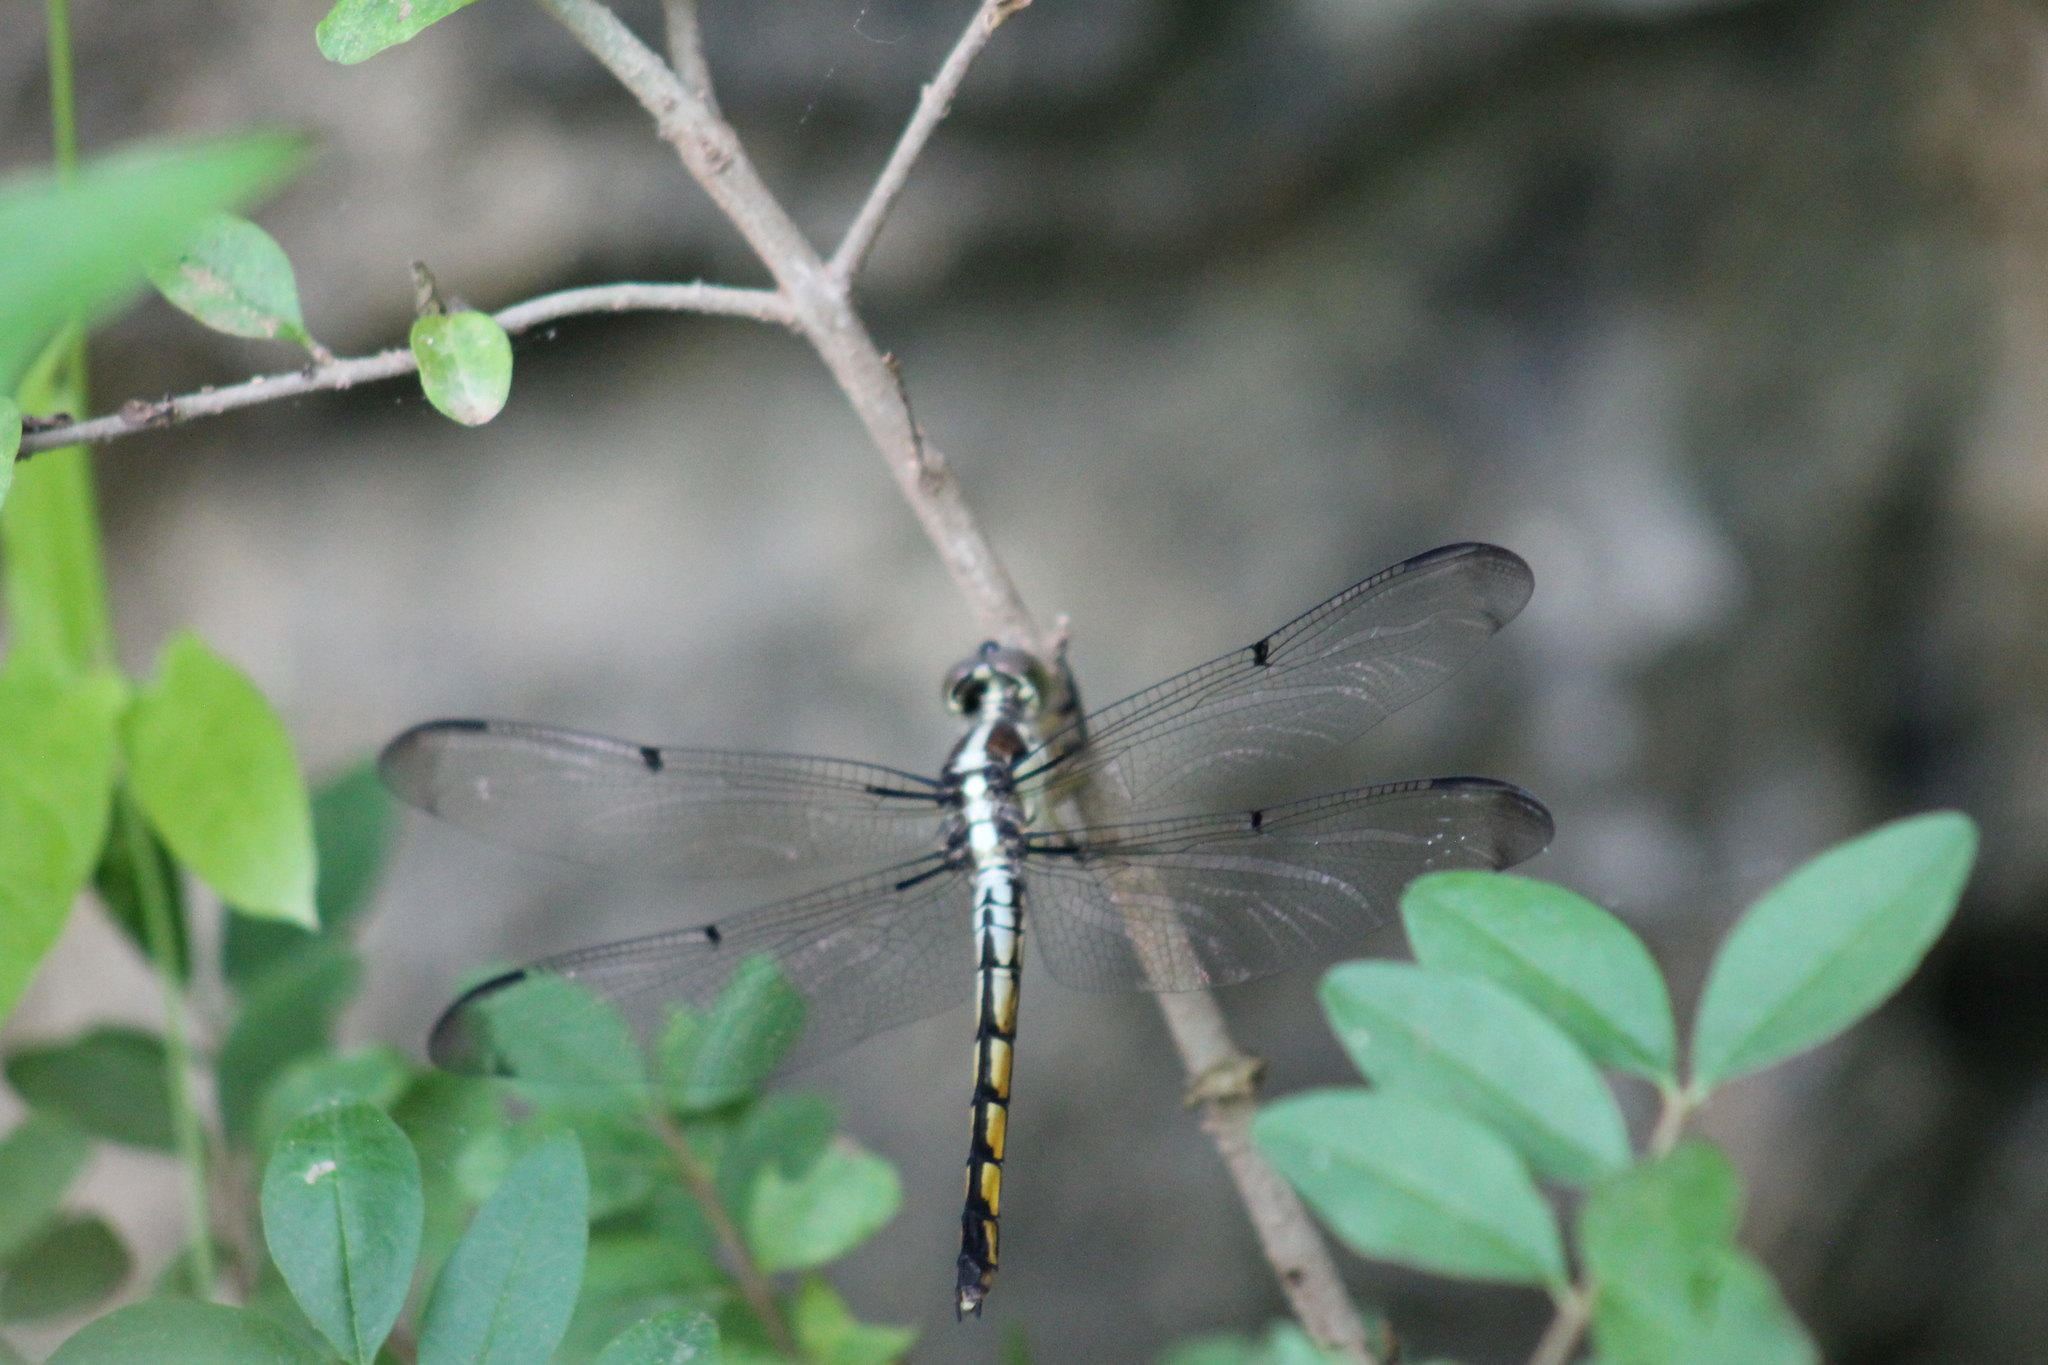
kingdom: Animalia
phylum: Arthropoda
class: Insecta
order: Odonata
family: Libellulidae
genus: Libellula
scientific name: Libellula vibrans
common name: Great blue skimmer
